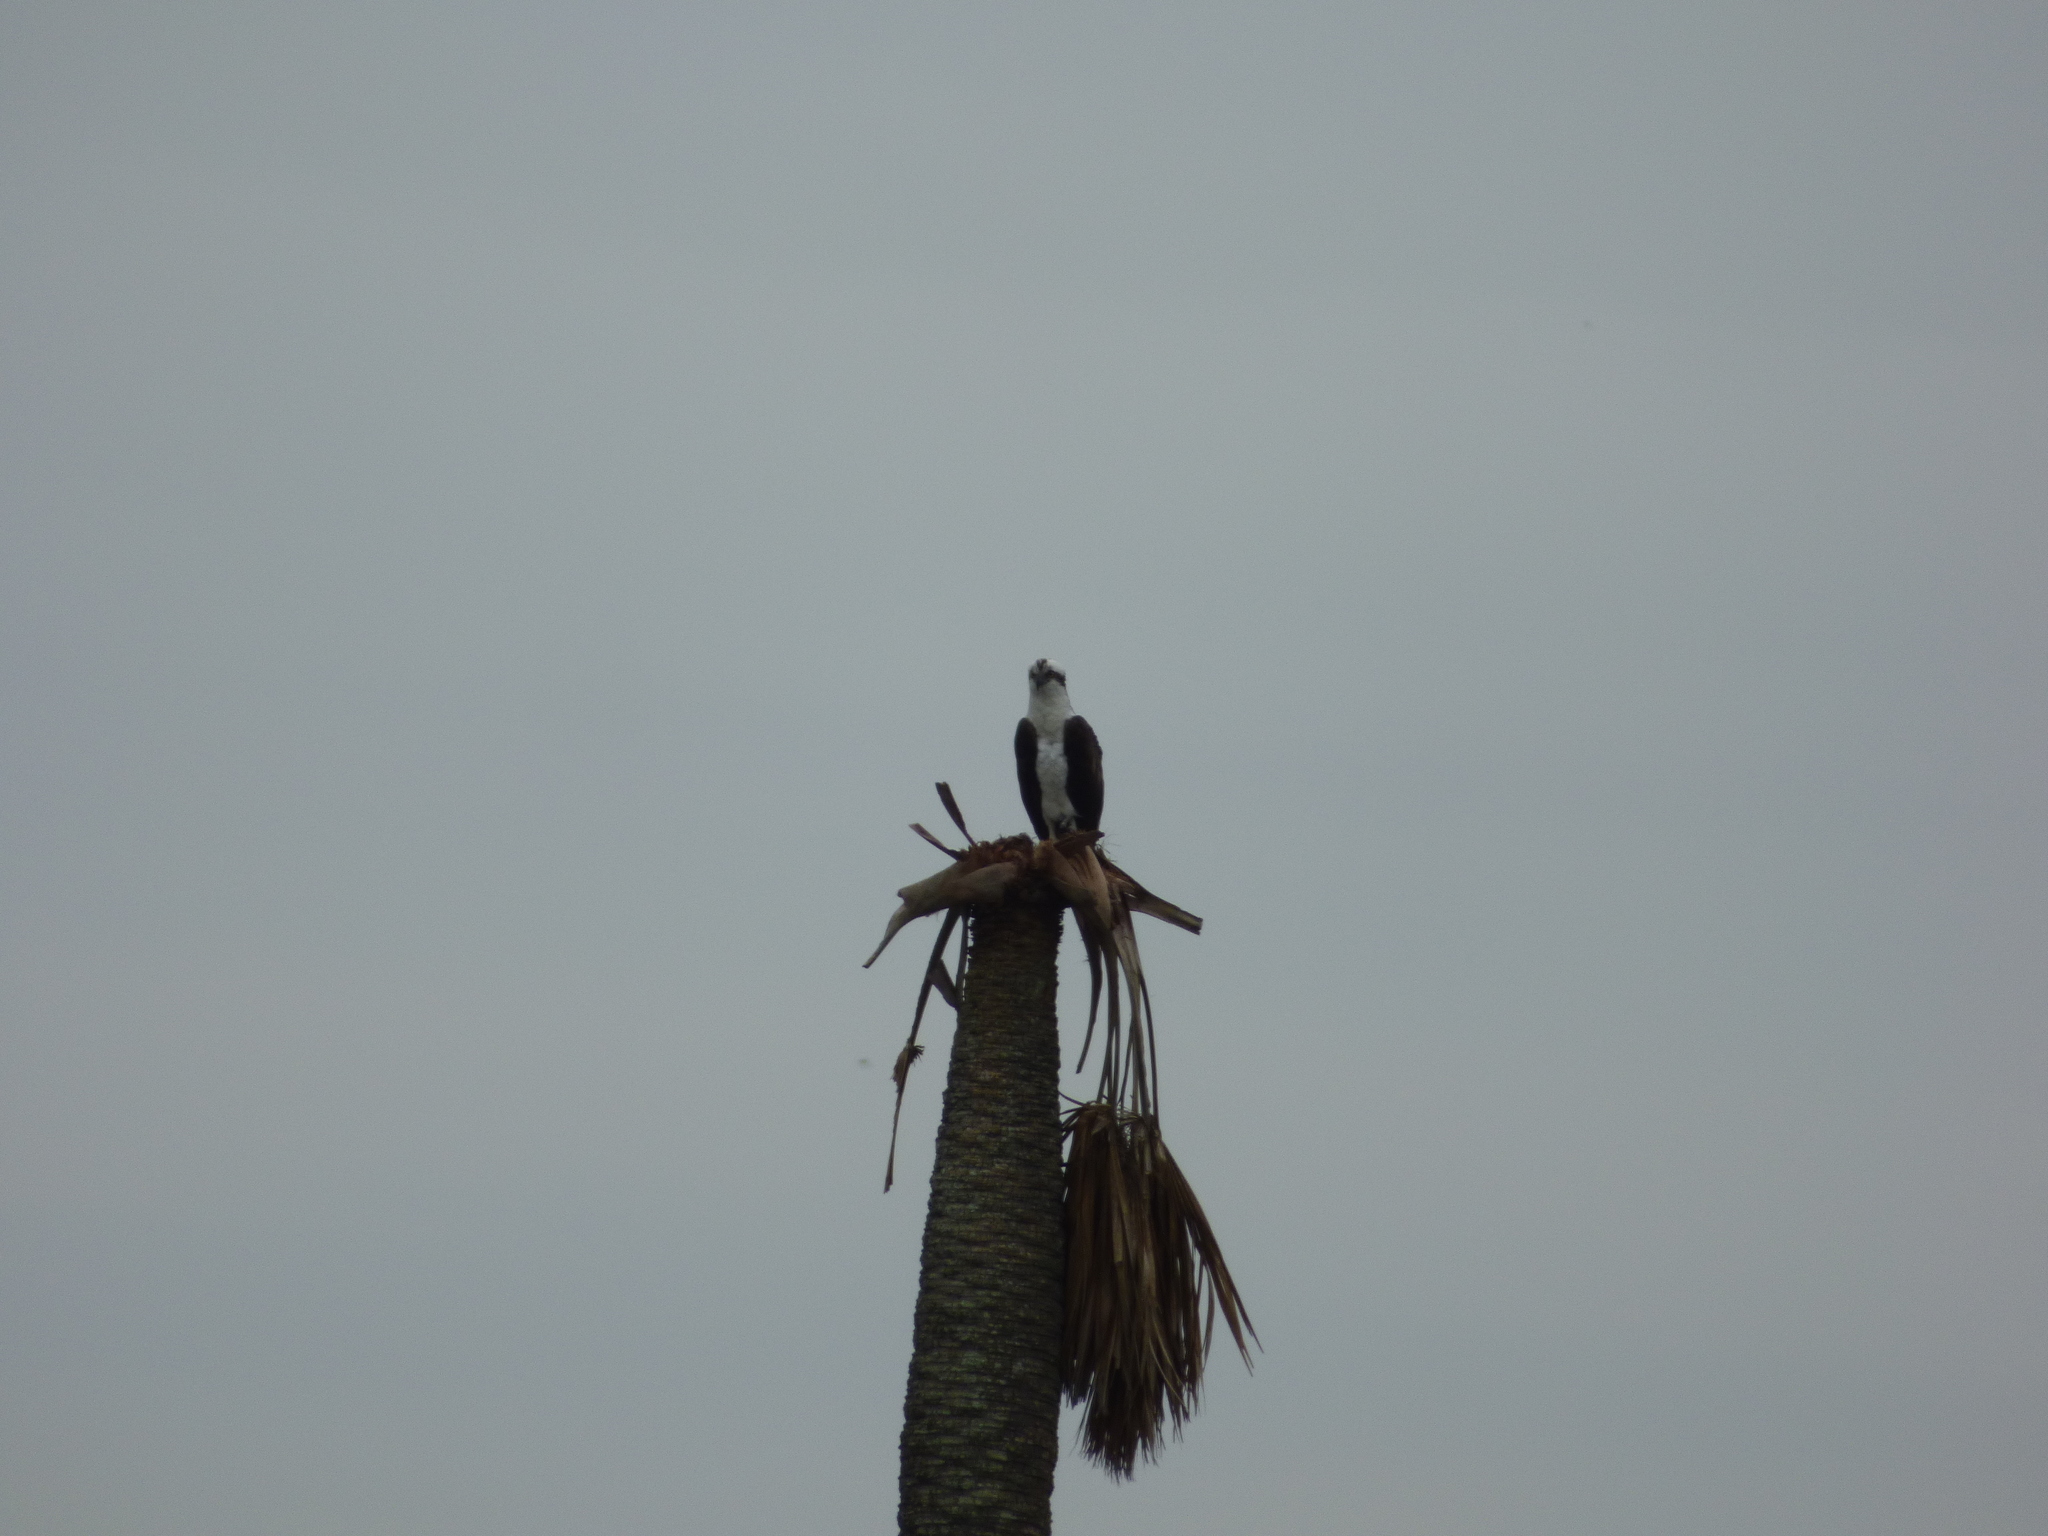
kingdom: Animalia
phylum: Chordata
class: Aves
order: Accipitriformes
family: Pandionidae
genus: Pandion
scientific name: Pandion haliaetus
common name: Osprey
